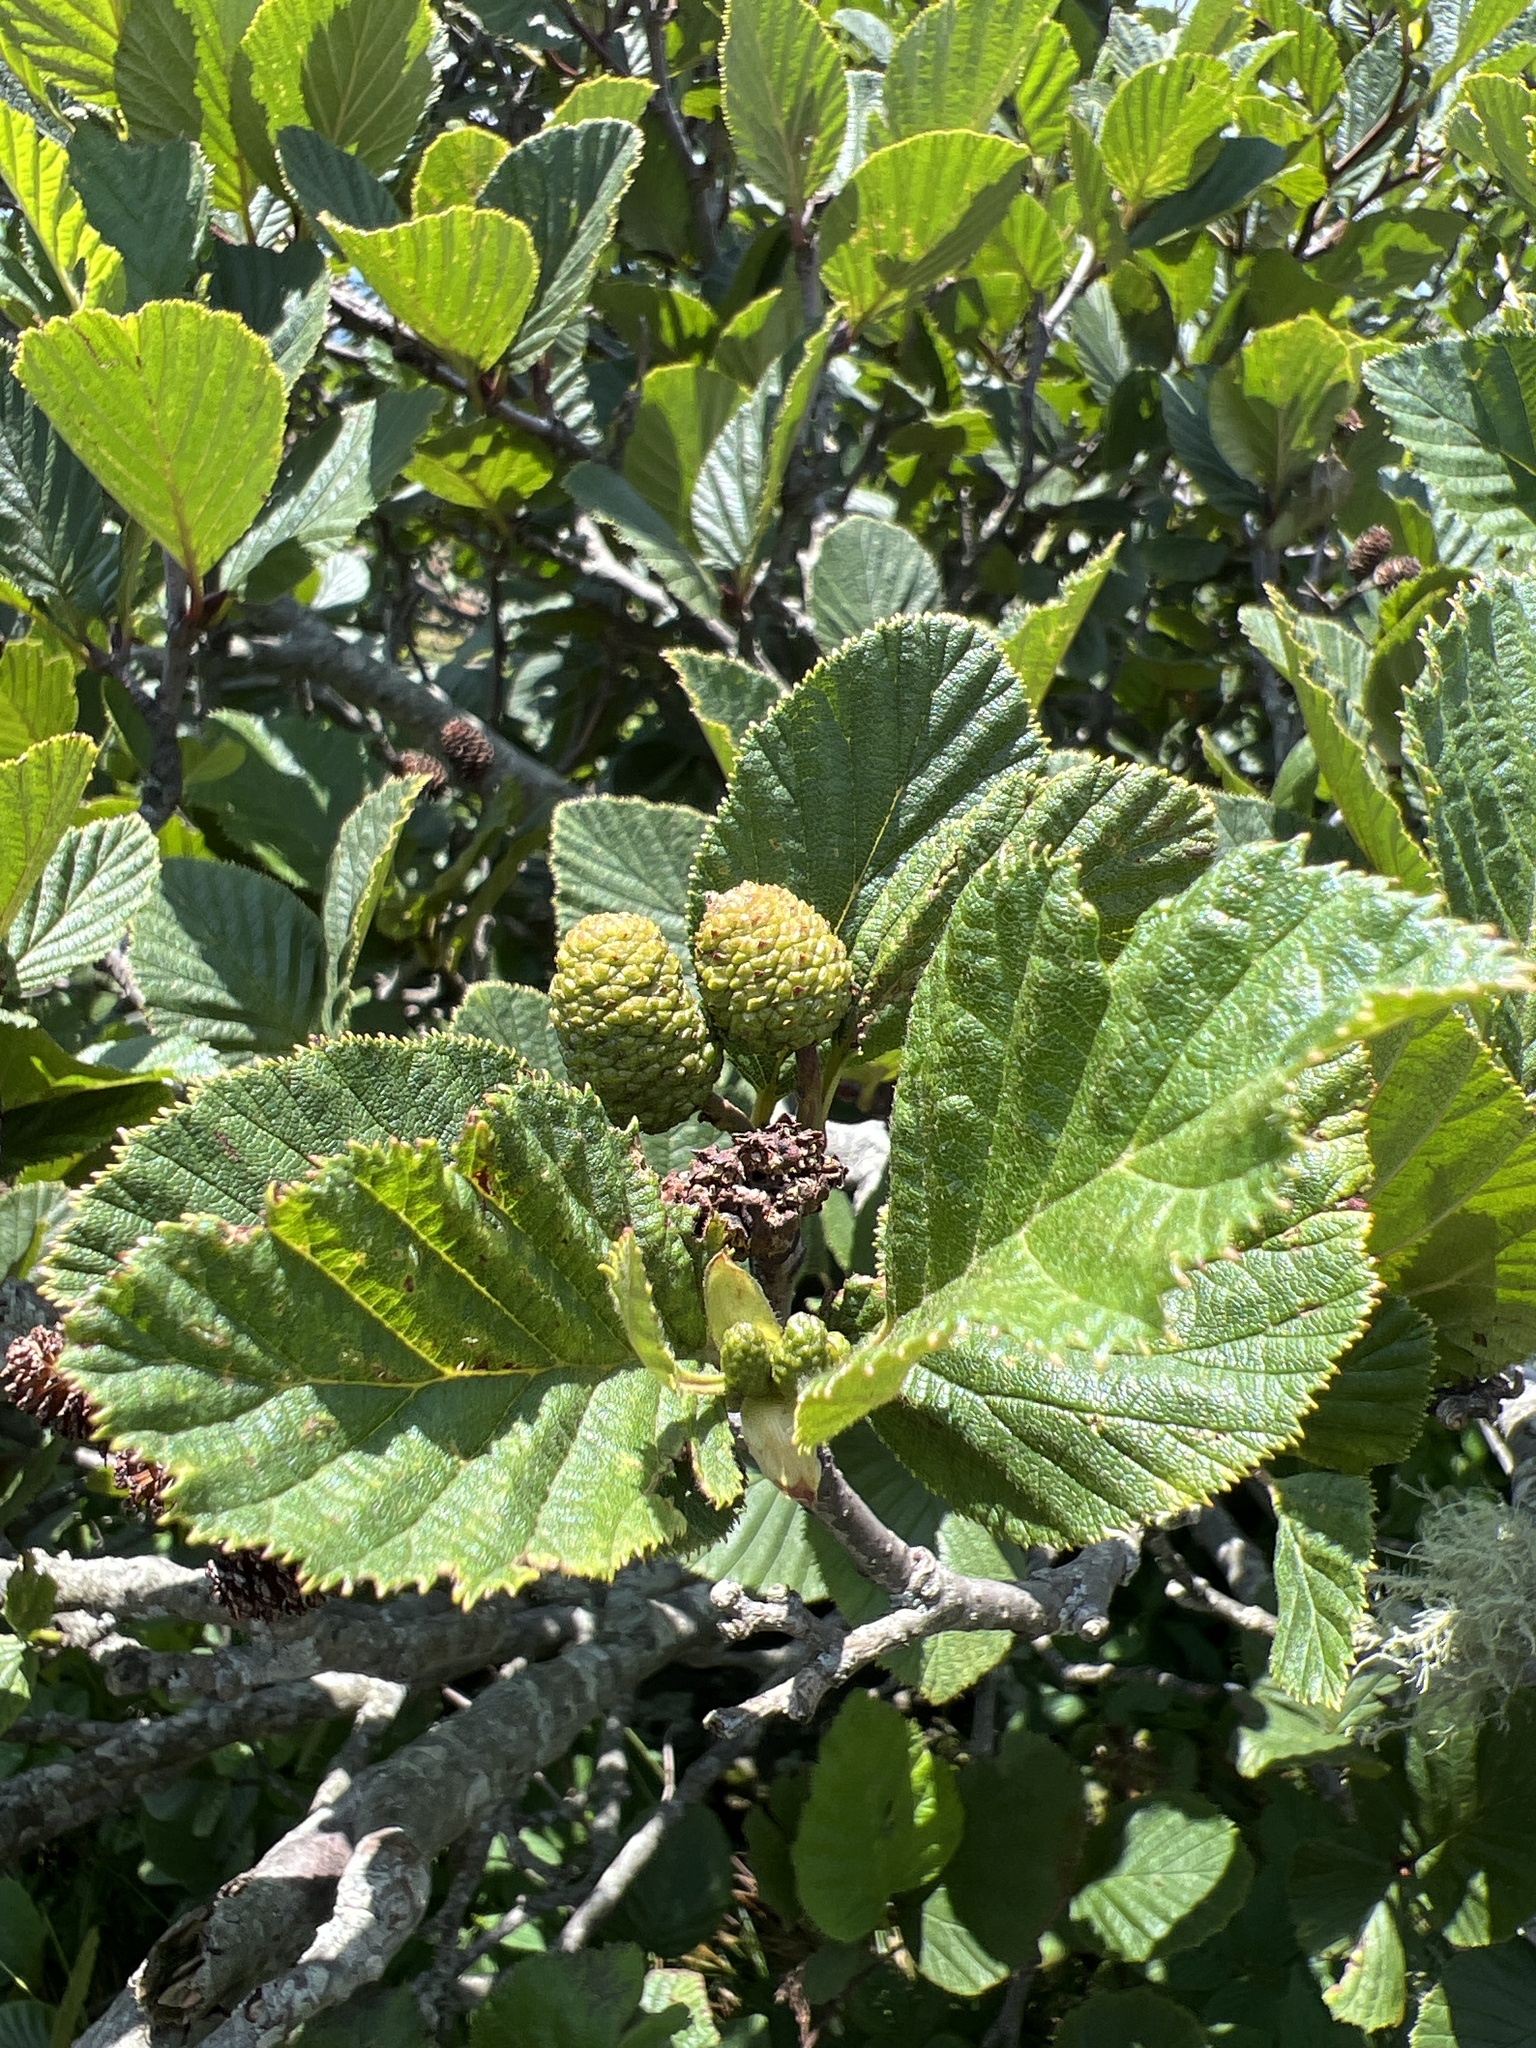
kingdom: Plantae
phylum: Tracheophyta
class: Magnoliopsida
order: Fagales
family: Betulaceae
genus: Alnus
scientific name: Alnus alnobetula
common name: Green alder
